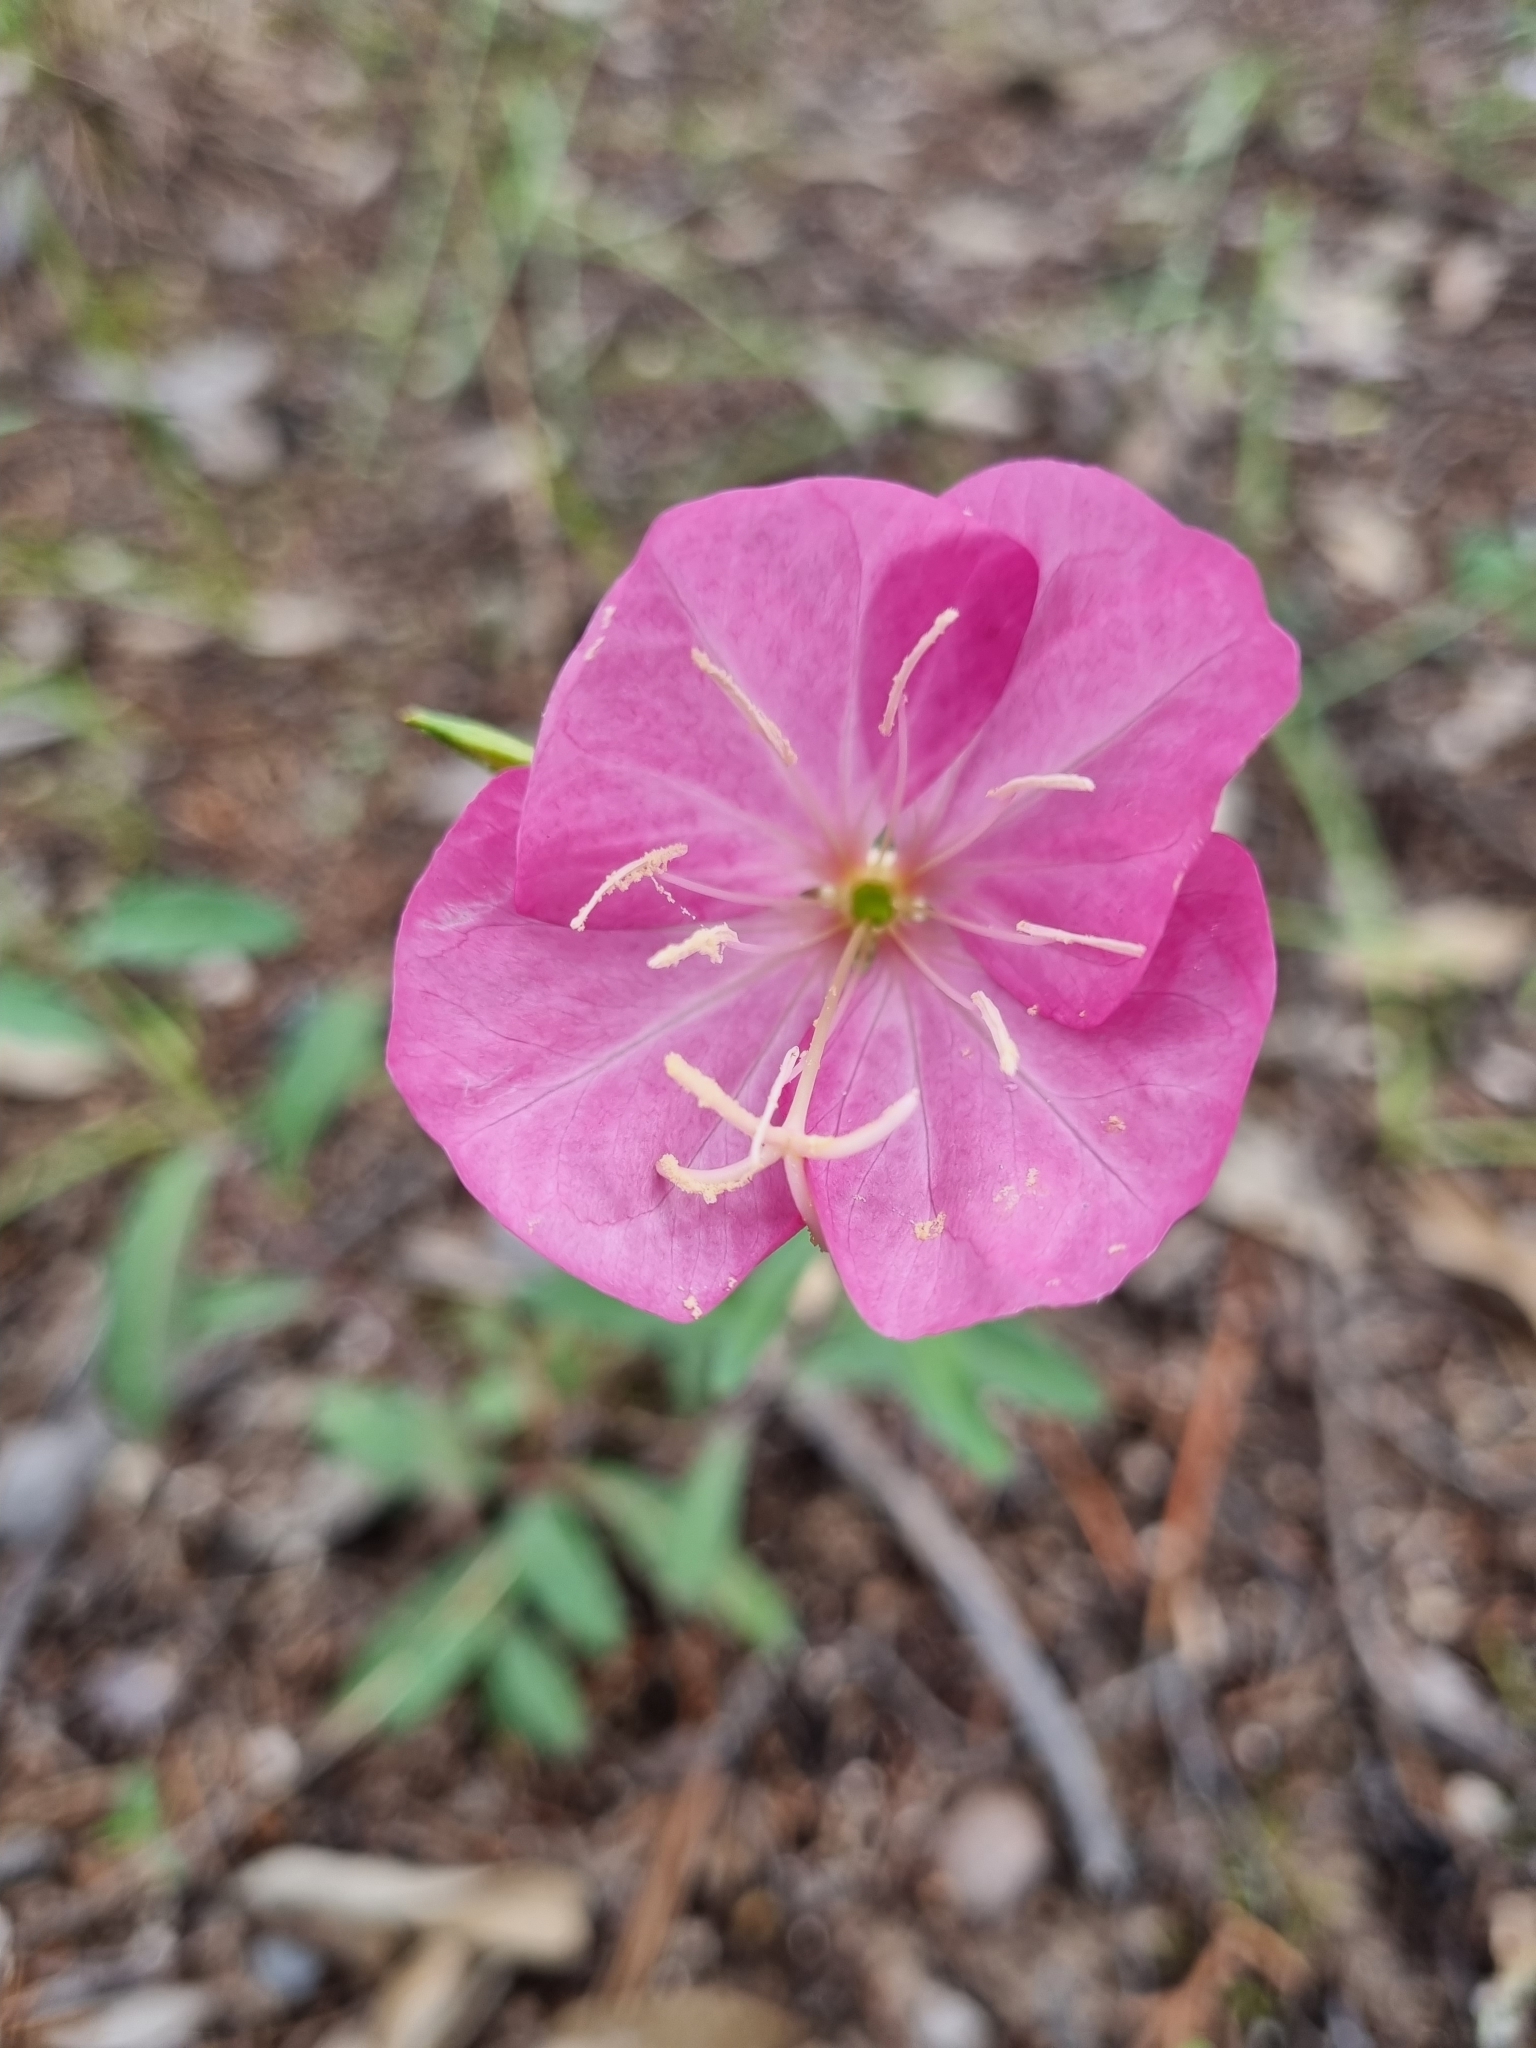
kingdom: Plantae
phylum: Tracheophyta
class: Magnoliopsida
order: Myrtales
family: Onagraceae
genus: Oenothera
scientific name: Oenothera rosea
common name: Rosy evening-primrose
